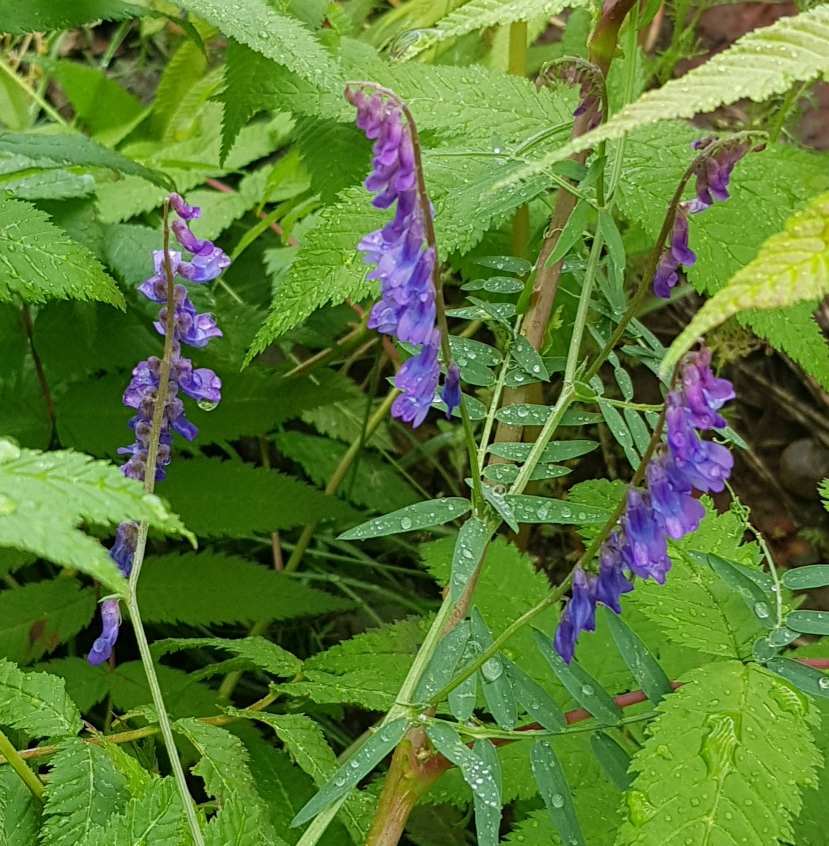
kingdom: Plantae
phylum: Tracheophyta
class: Magnoliopsida
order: Fabales
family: Fabaceae
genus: Vicia
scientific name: Vicia cracca
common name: Bird vetch
